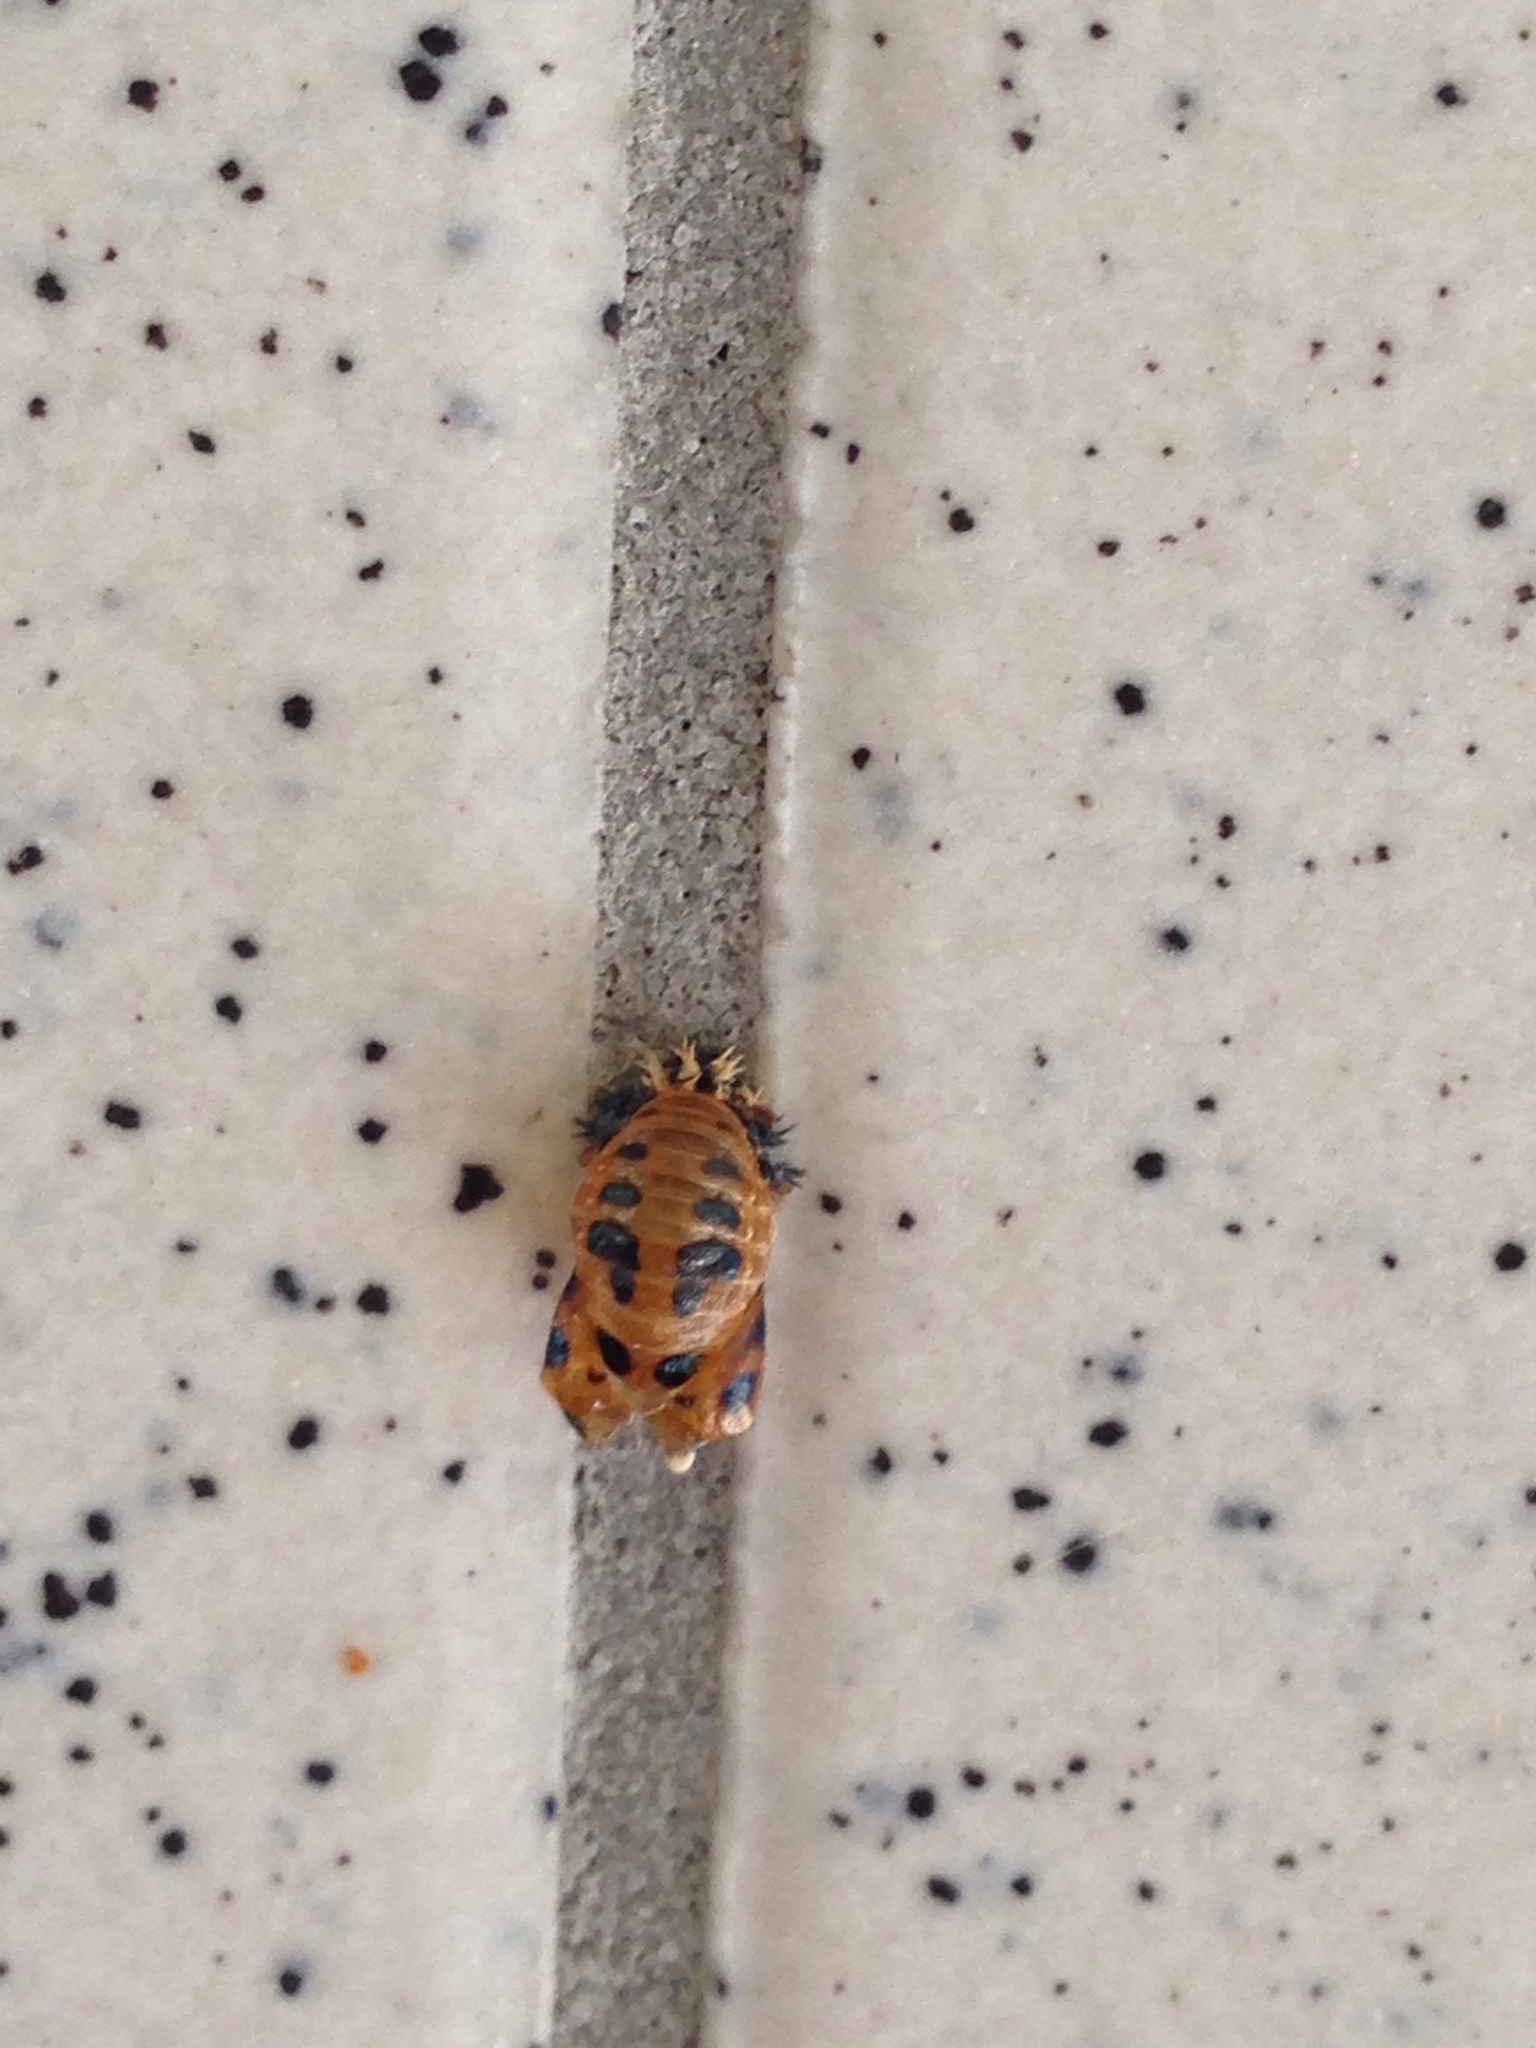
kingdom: Animalia
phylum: Arthropoda
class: Insecta
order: Coleoptera
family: Coccinellidae
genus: Harmonia
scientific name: Harmonia axyridis
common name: Harlequin ladybird
